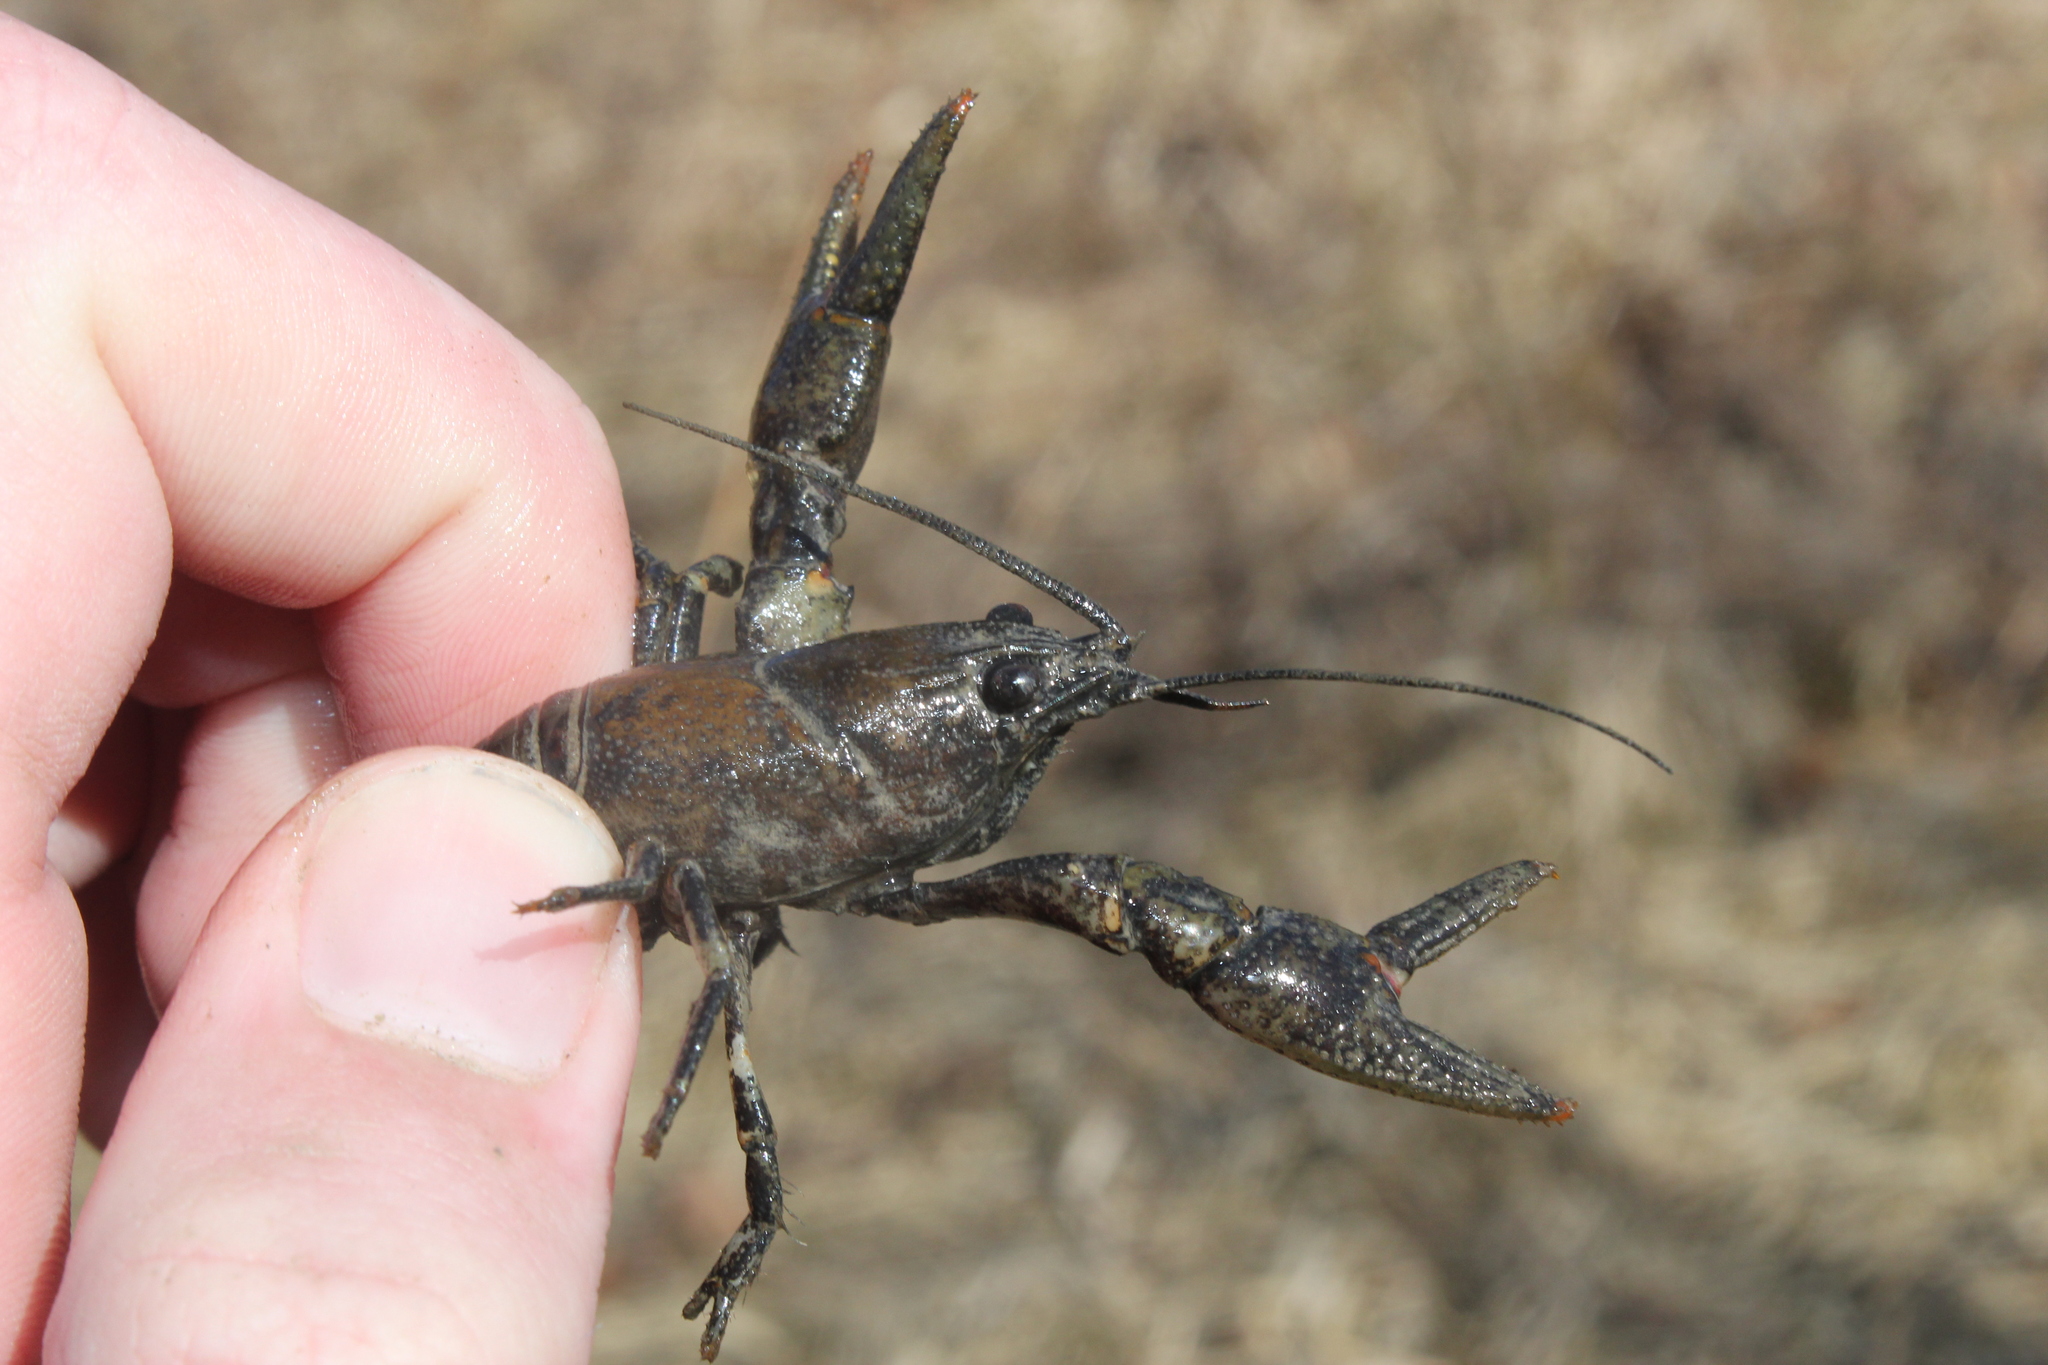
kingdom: Animalia
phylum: Arthropoda
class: Malacostraca
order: Decapoda
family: Cambaridae
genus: Faxonius
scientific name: Faxonius propinquus
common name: Northern clearwater crayfish
